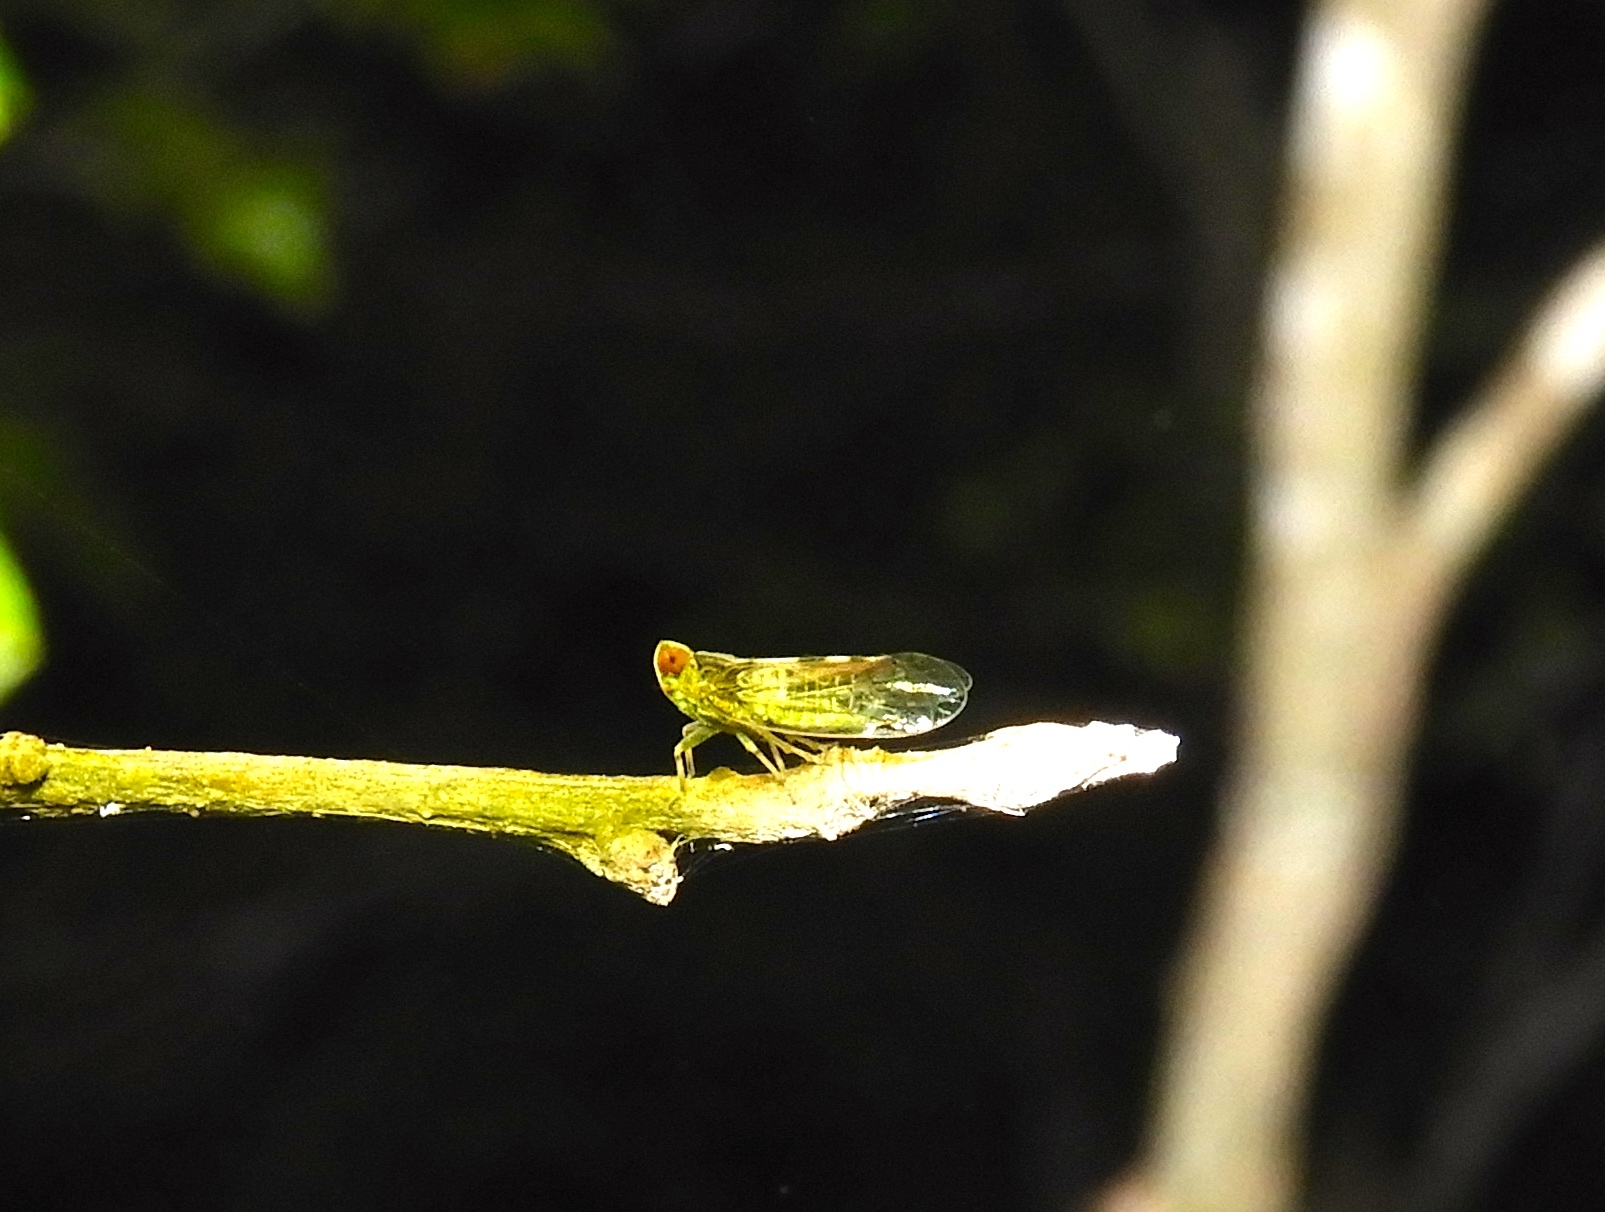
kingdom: Animalia
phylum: Arthropoda
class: Insecta
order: Hemiptera
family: Cixiidae
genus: Oecleus
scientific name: Oecleus
